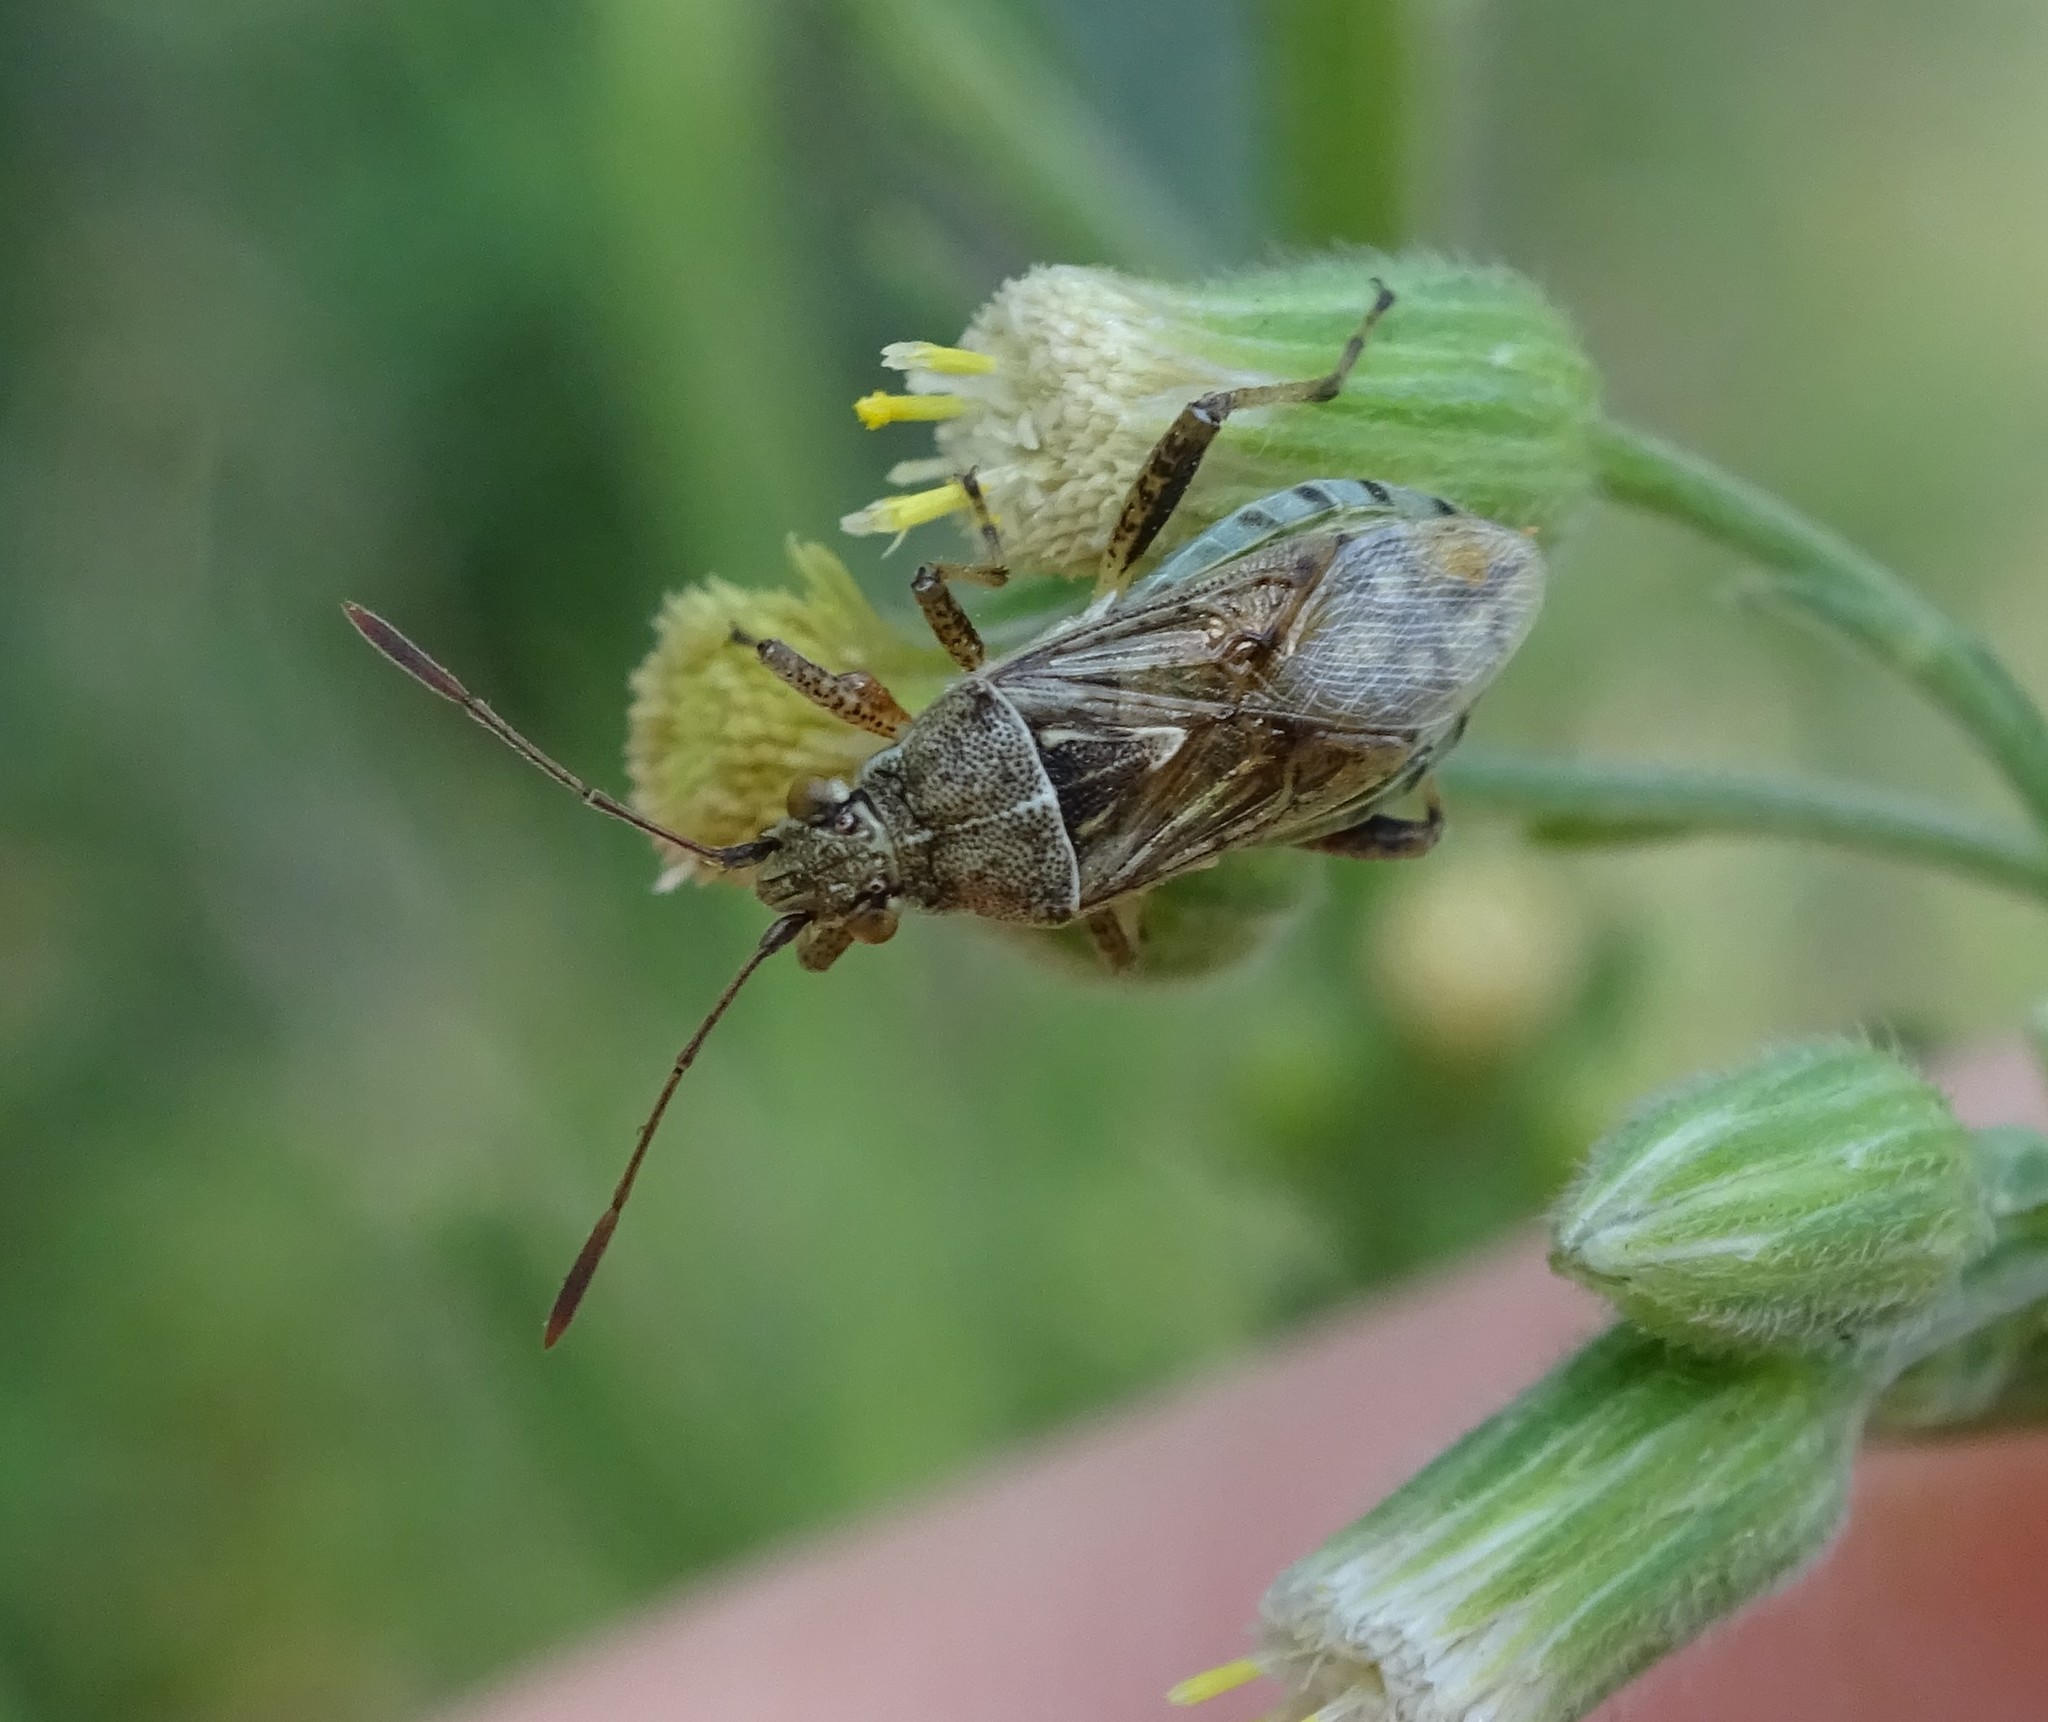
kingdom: Animalia
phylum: Arthropoda
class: Insecta
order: Hemiptera
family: Rhopalidae
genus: Stictopleurus
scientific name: Stictopleurus punctatonervosus
